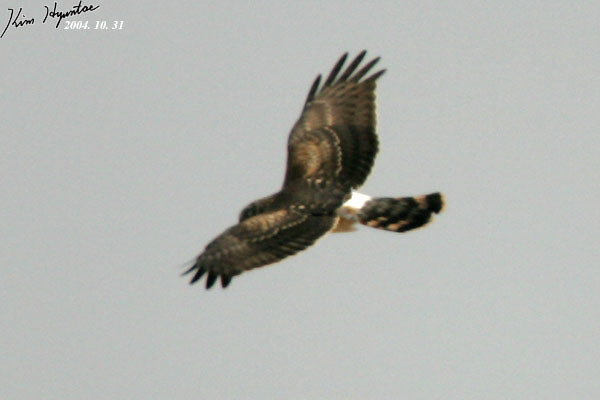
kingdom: Animalia
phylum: Chordata
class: Aves
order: Accipitriformes
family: Accipitridae
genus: Circus
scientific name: Circus cyaneus
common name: Hen harrier
